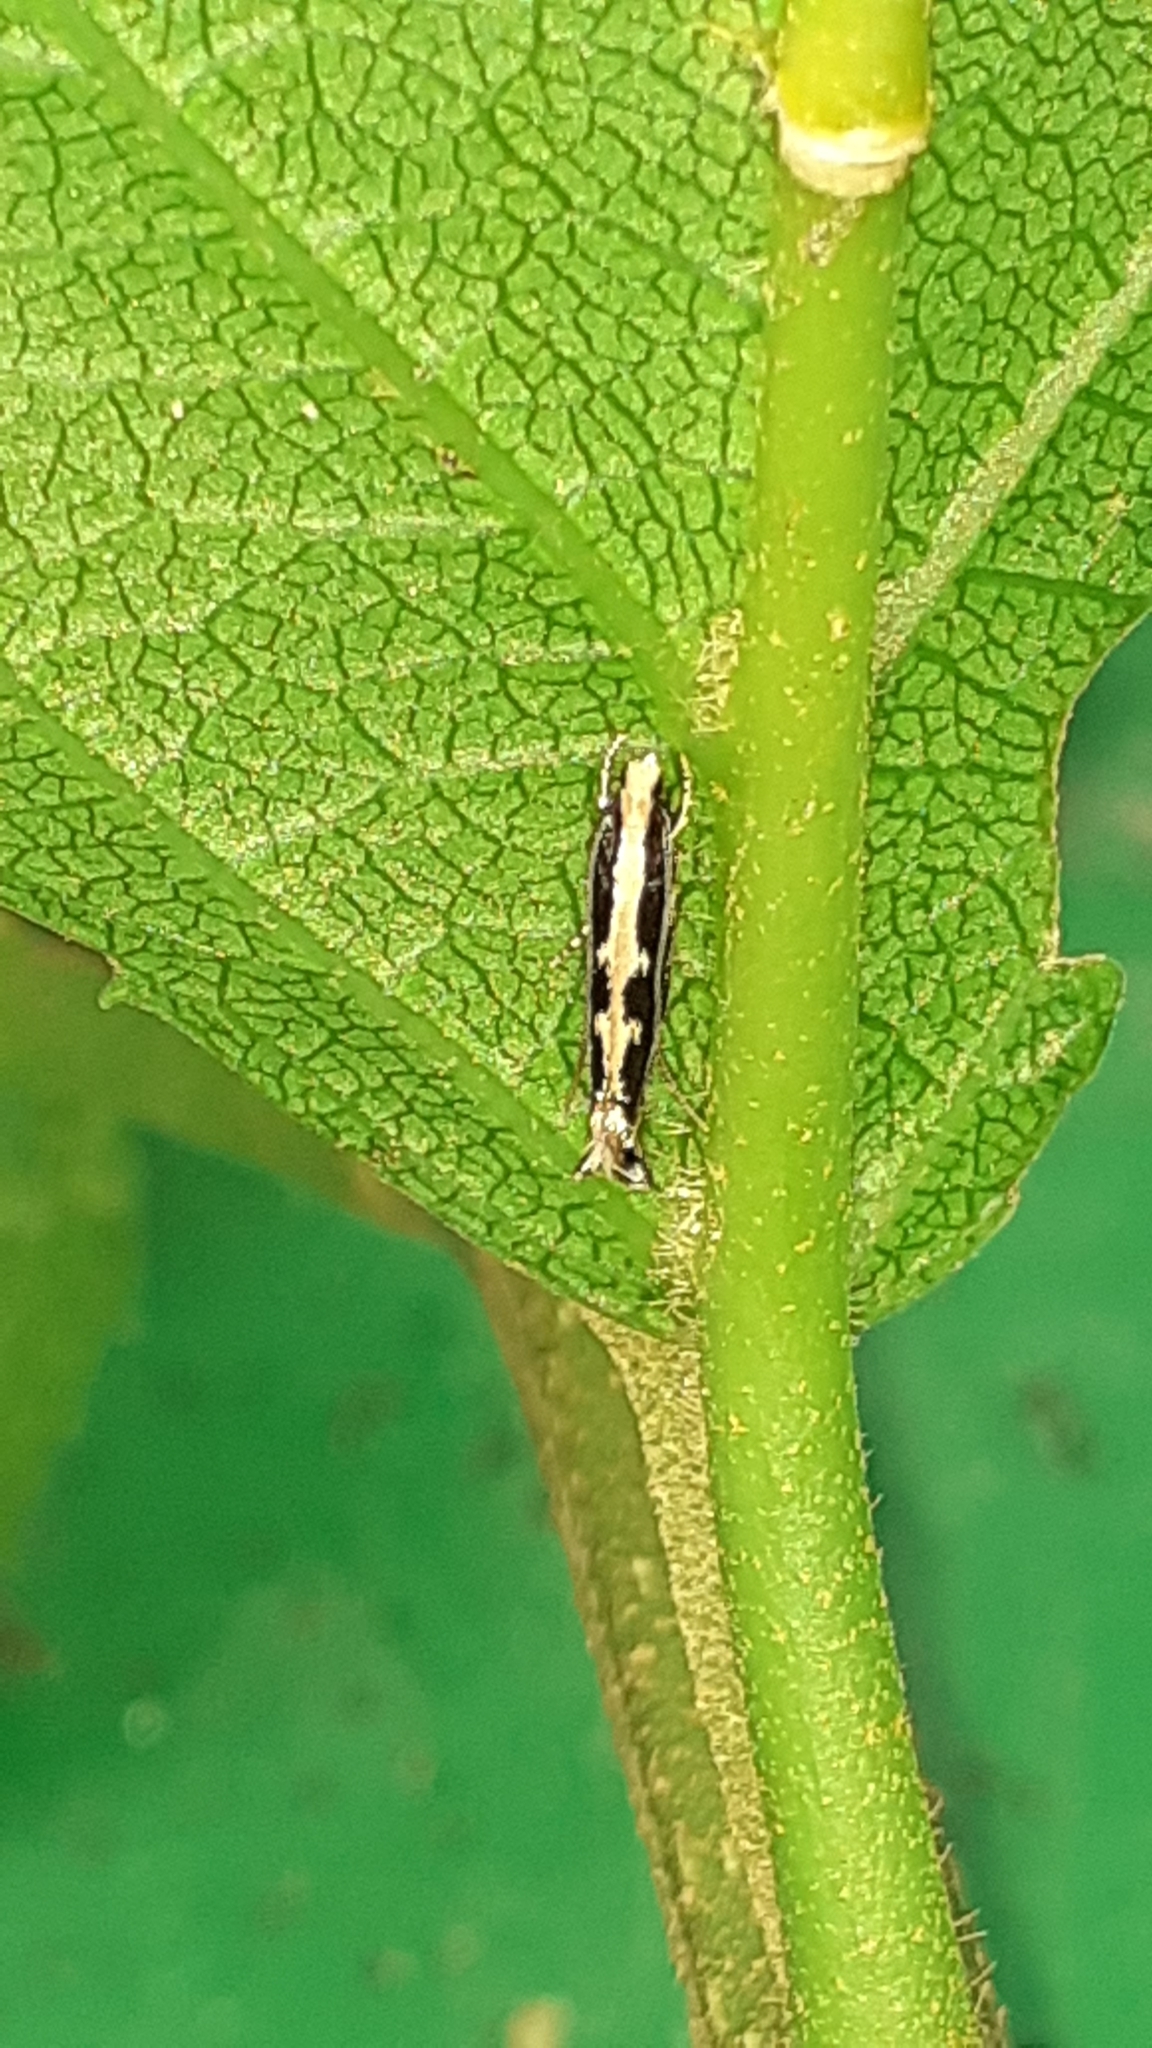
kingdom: Animalia
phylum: Arthropoda
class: Insecta
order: Lepidoptera
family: Plutellidae
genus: Plutella
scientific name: Plutella xylostella
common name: Diamond-back moth
